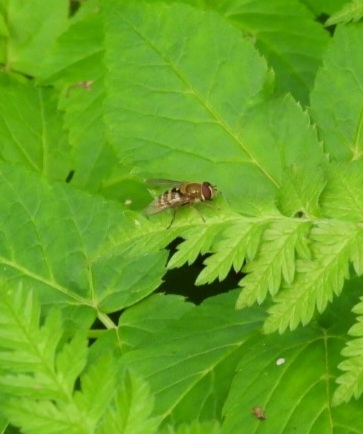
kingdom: Animalia
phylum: Arthropoda
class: Insecta
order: Diptera
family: Syrphidae
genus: Syrphus
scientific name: Syrphus
